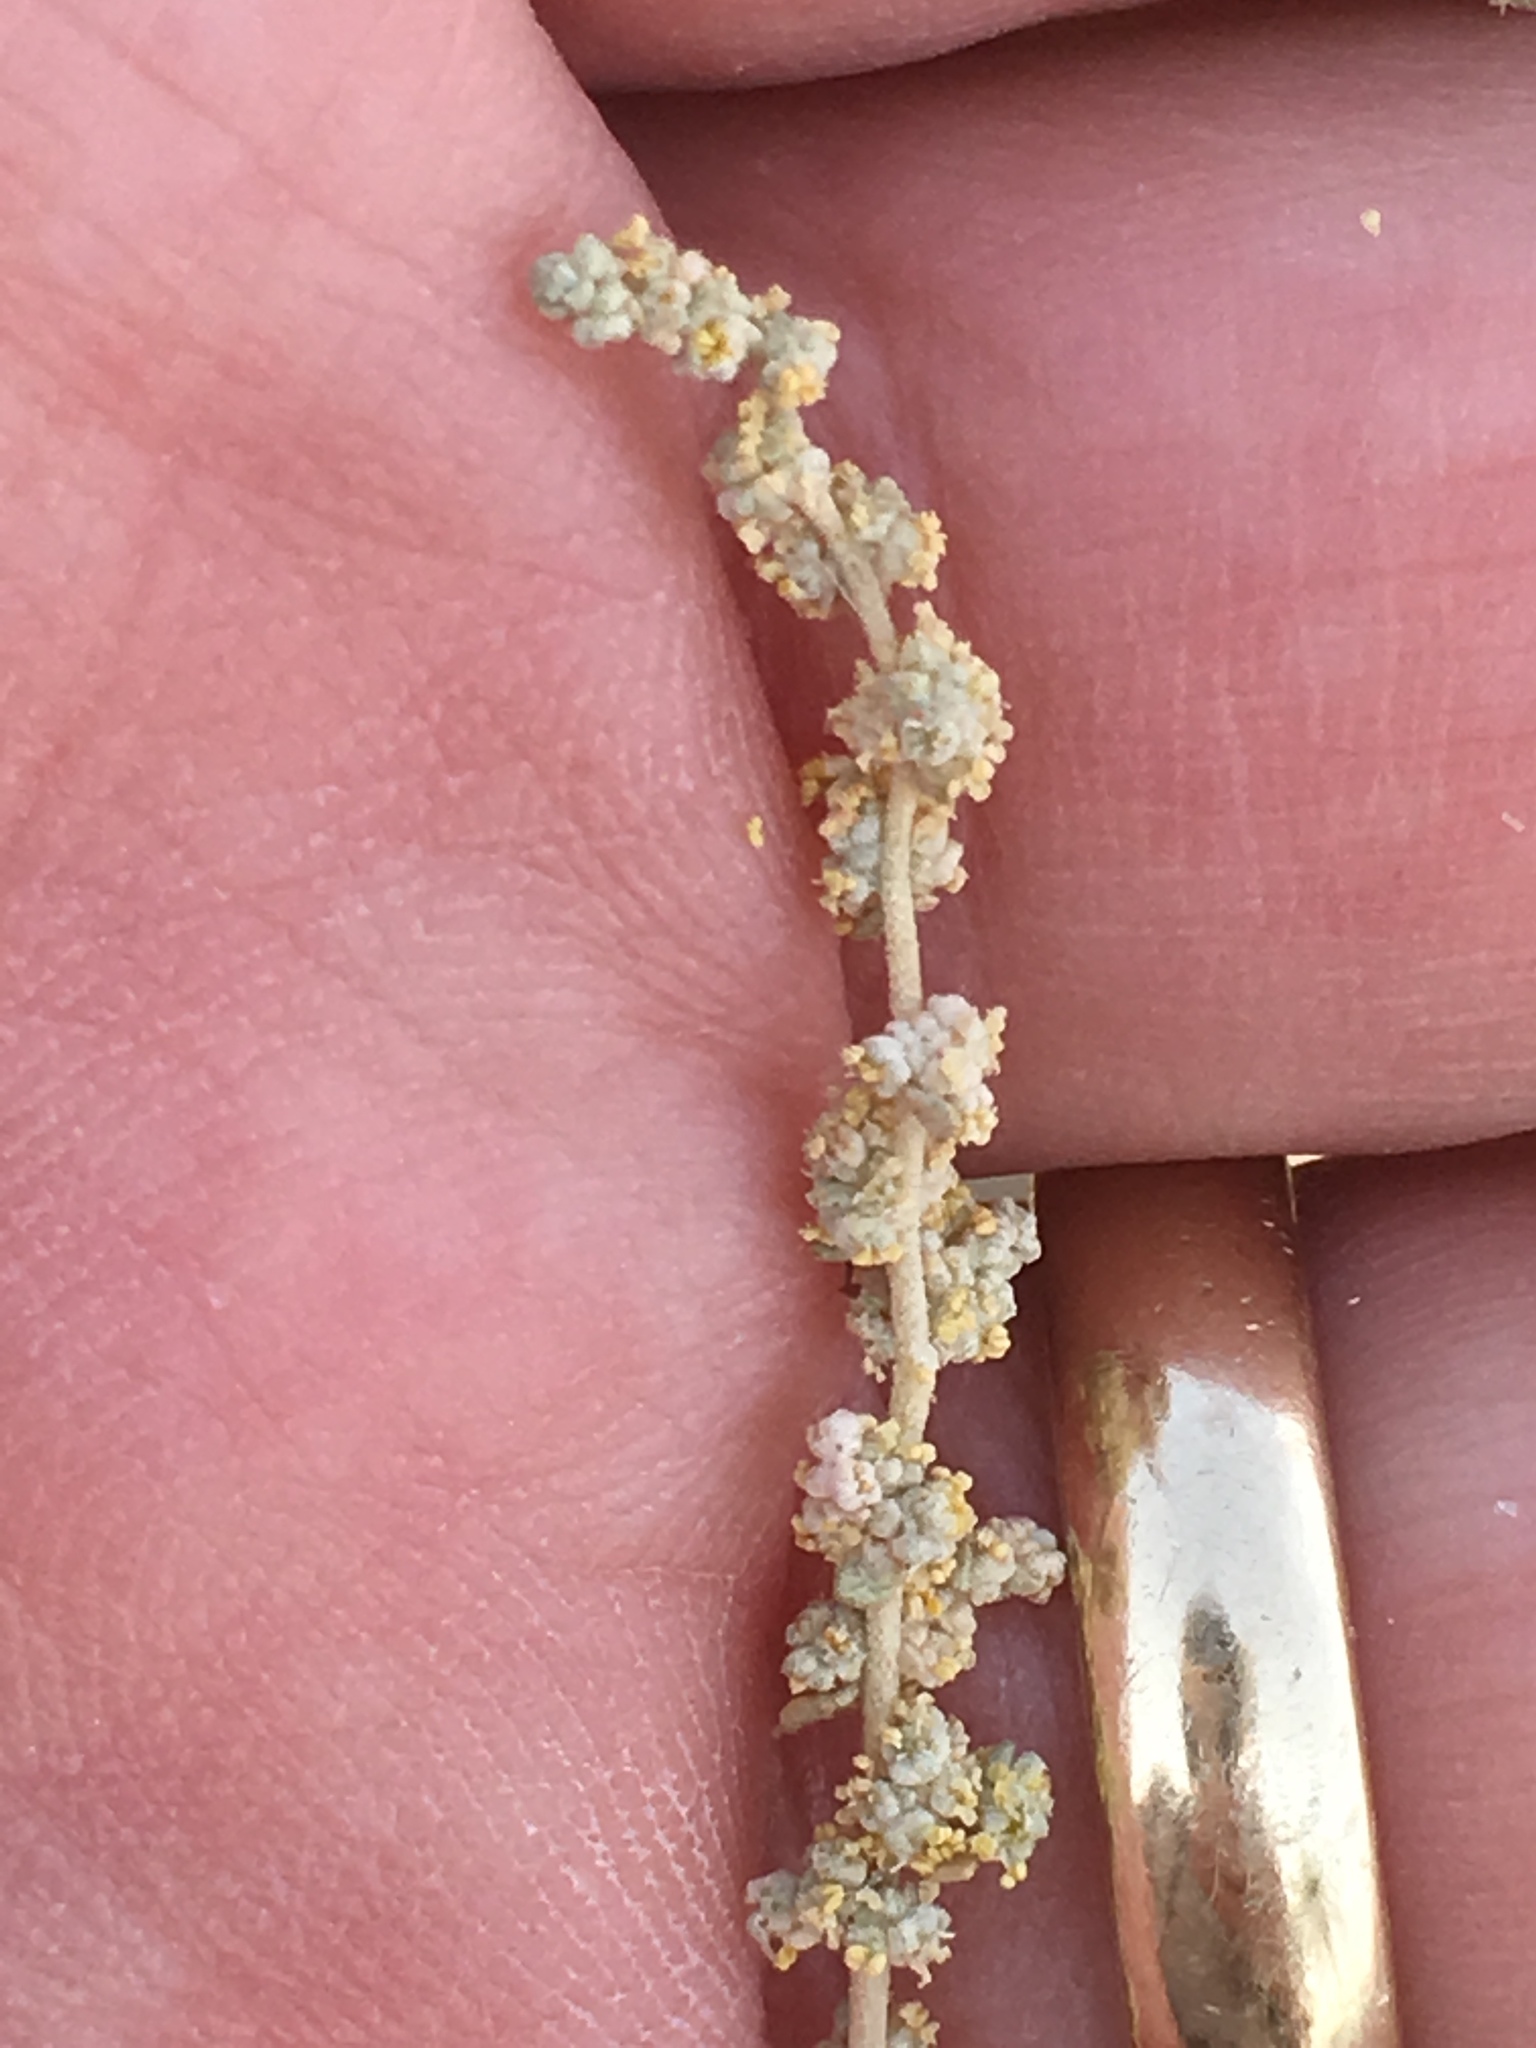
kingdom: Plantae
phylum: Tracheophyta
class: Magnoliopsida
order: Caryophyllales
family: Amaranthaceae
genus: Atriplex
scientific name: Atriplex polycarpa
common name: Desert saltbush
